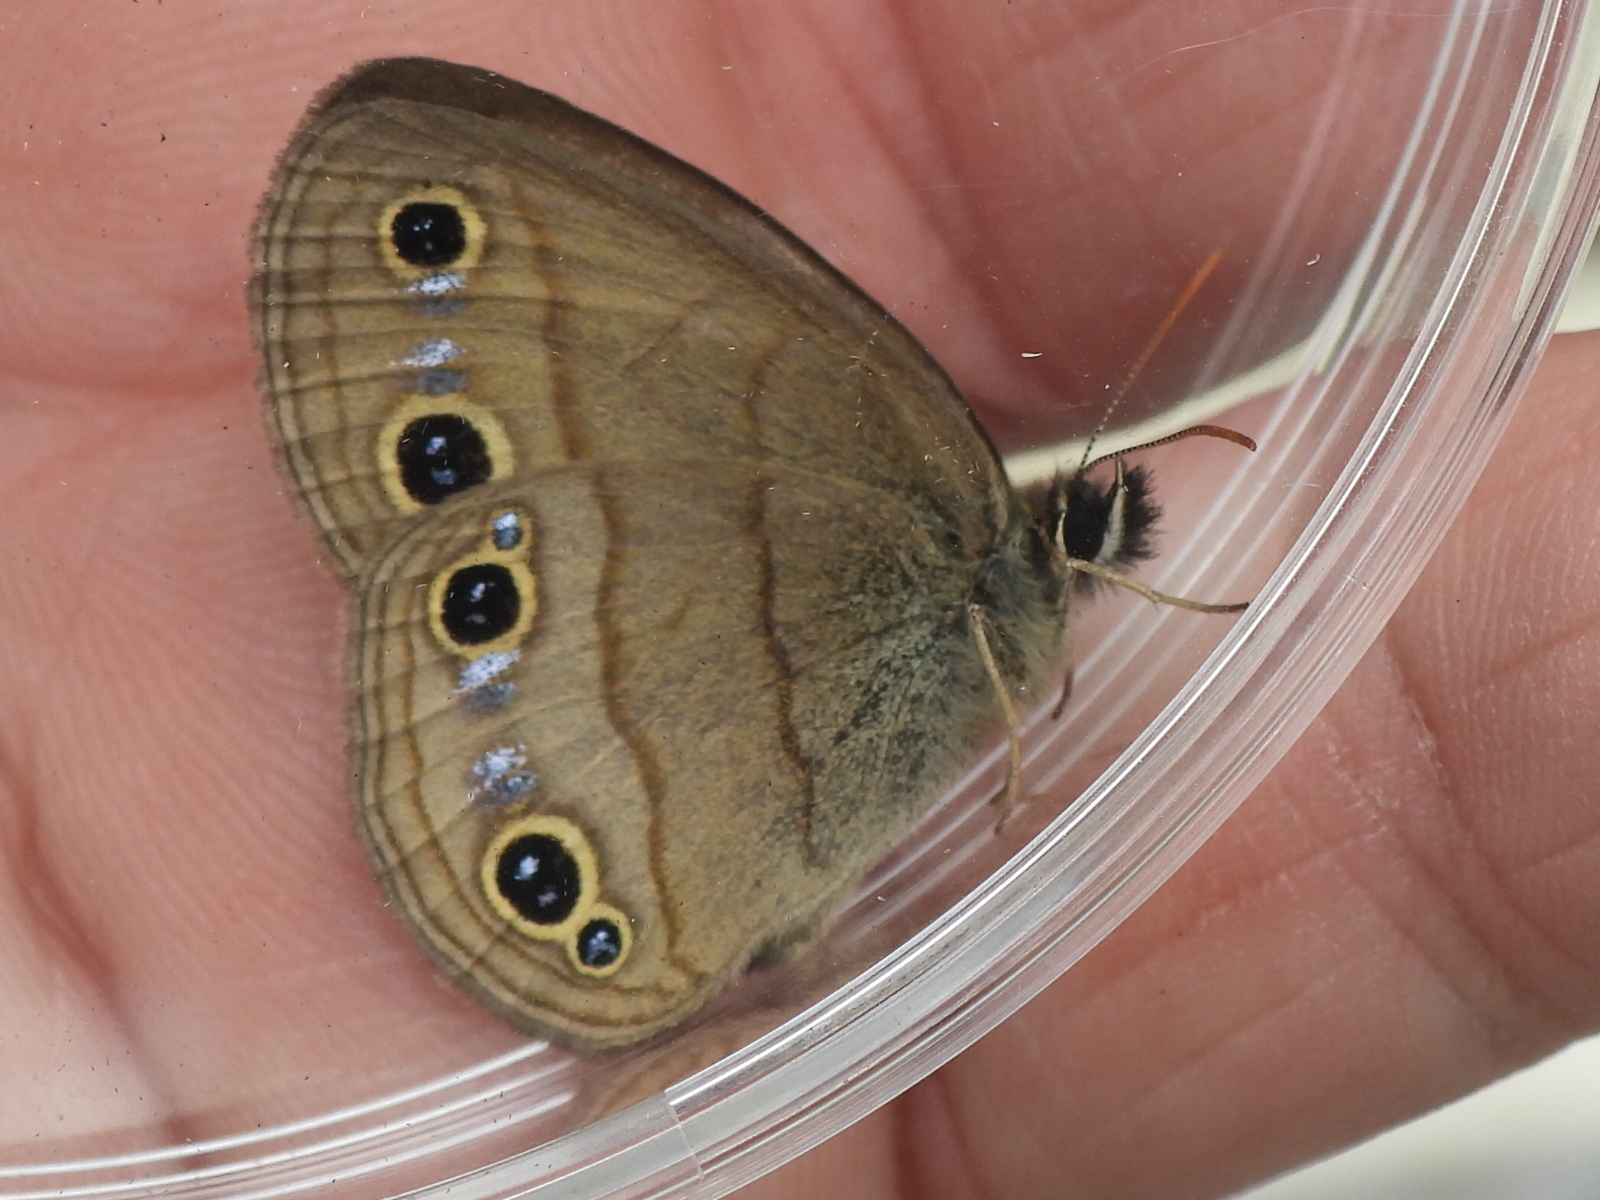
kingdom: Animalia
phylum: Arthropoda
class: Insecta
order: Lepidoptera
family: Nymphalidae
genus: Euptychia
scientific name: Euptychia cymela
